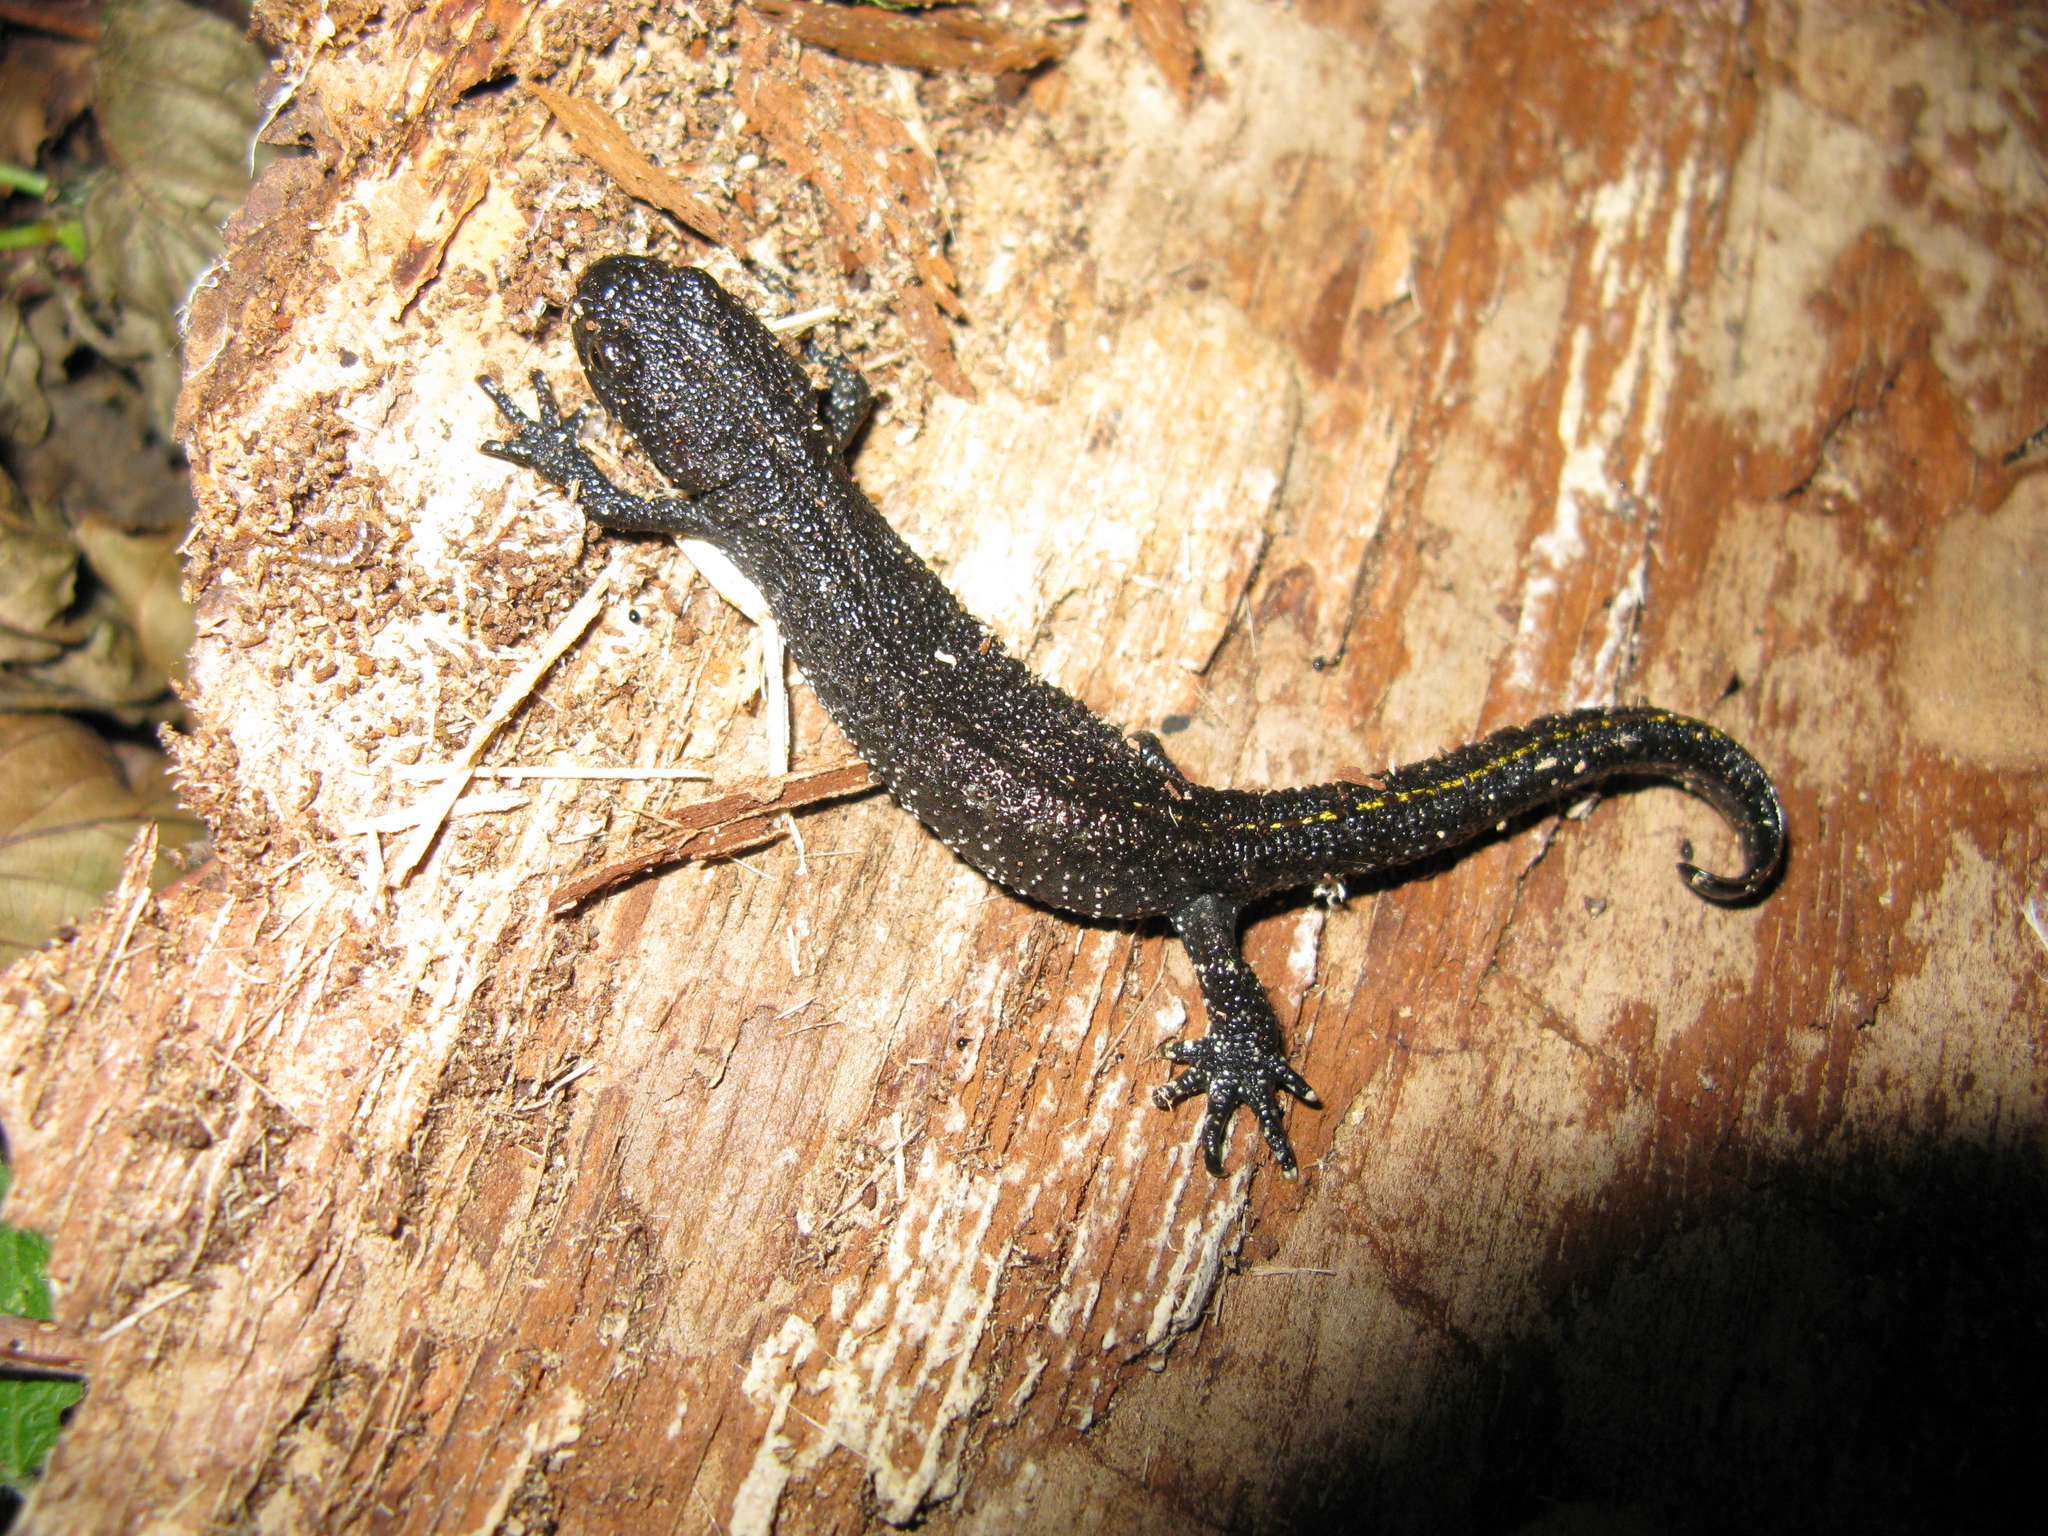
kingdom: Animalia
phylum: Chordata
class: Amphibia
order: Caudata
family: Salamandridae
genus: Triturus
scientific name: Triturus cristatus
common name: Crested newt
